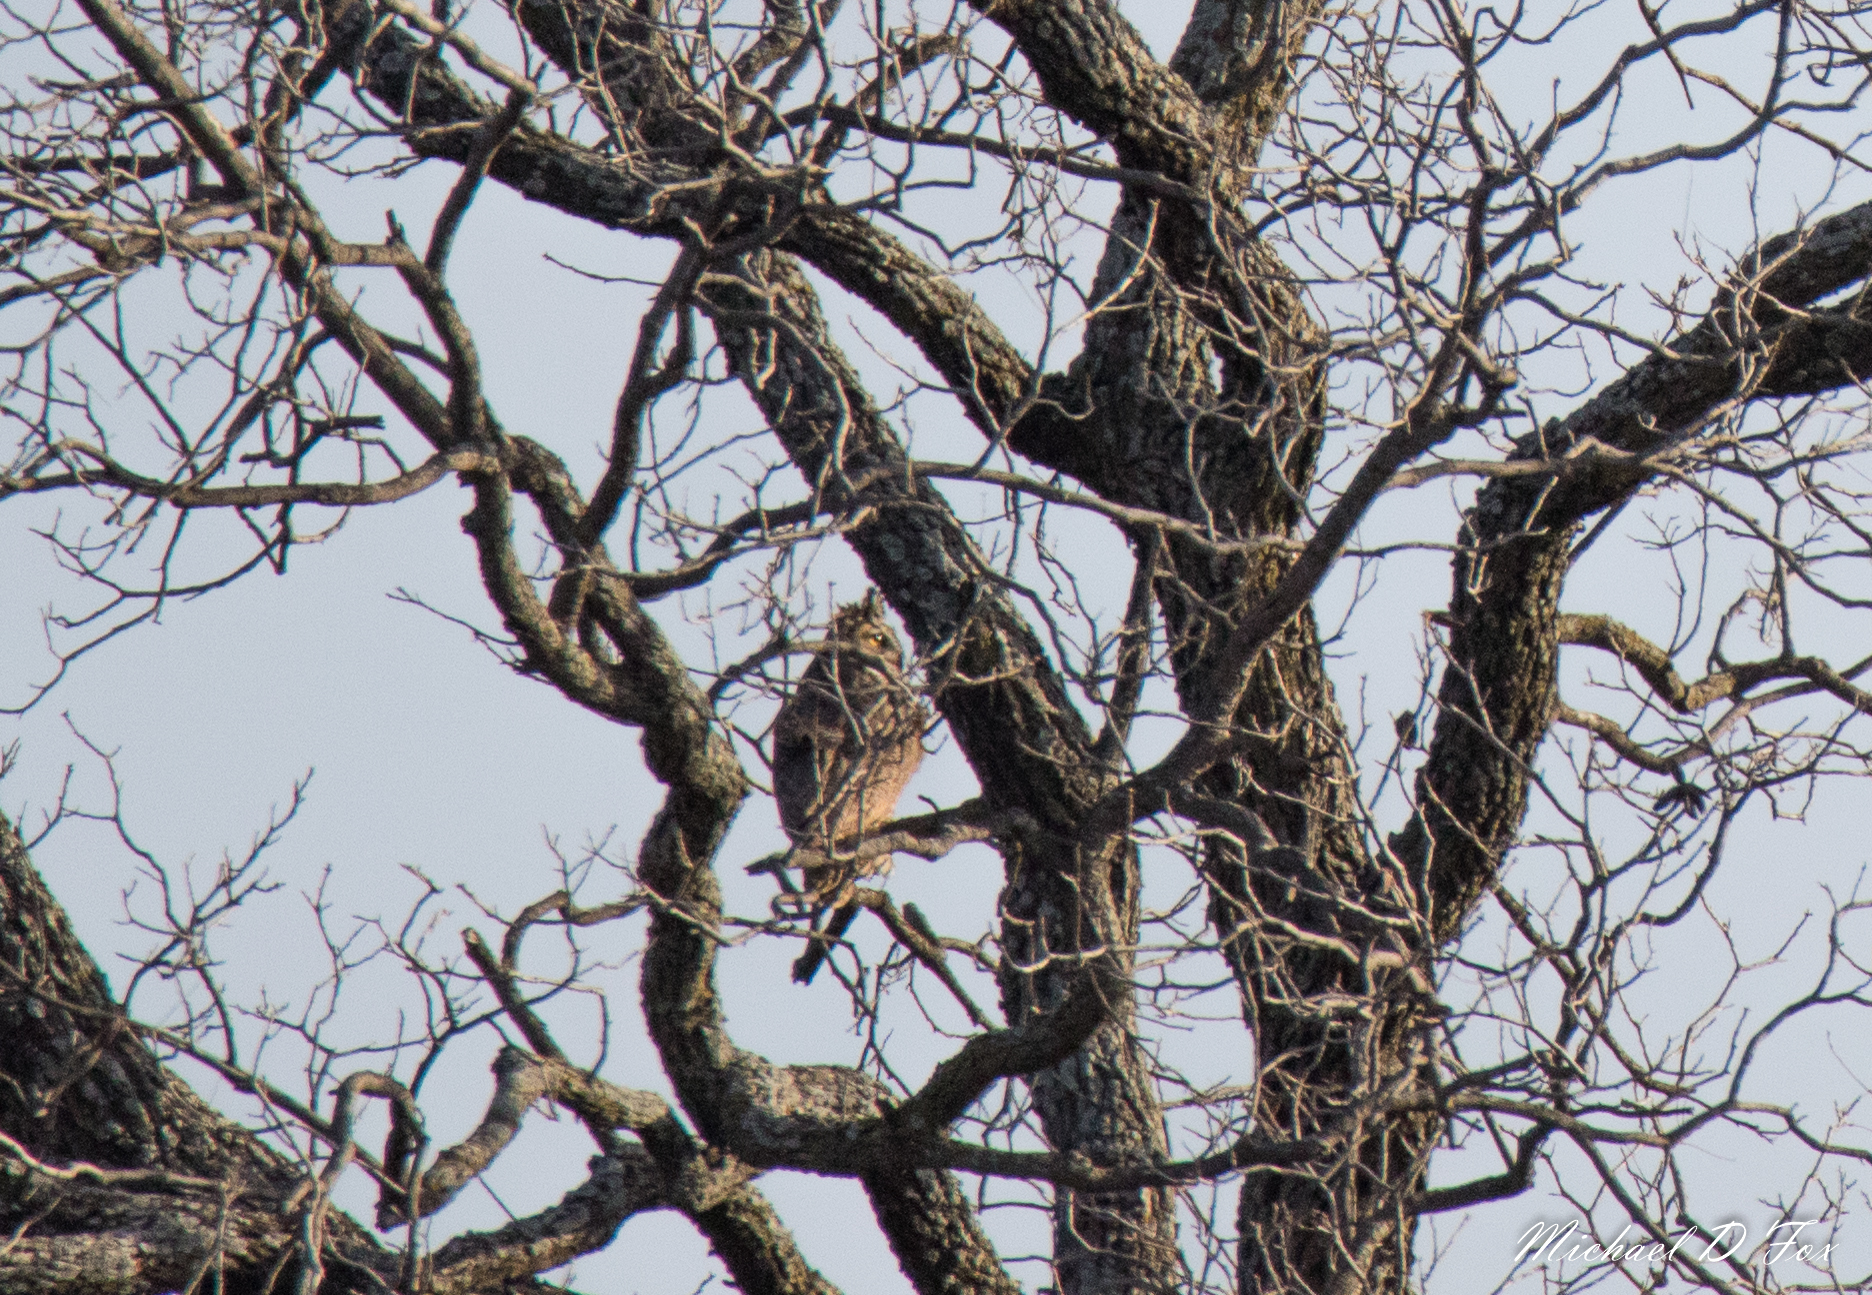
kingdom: Animalia
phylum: Chordata
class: Aves
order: Strigiformes
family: Strigidae
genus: Bubo
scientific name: Bubo virginianus
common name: Great horned owl
